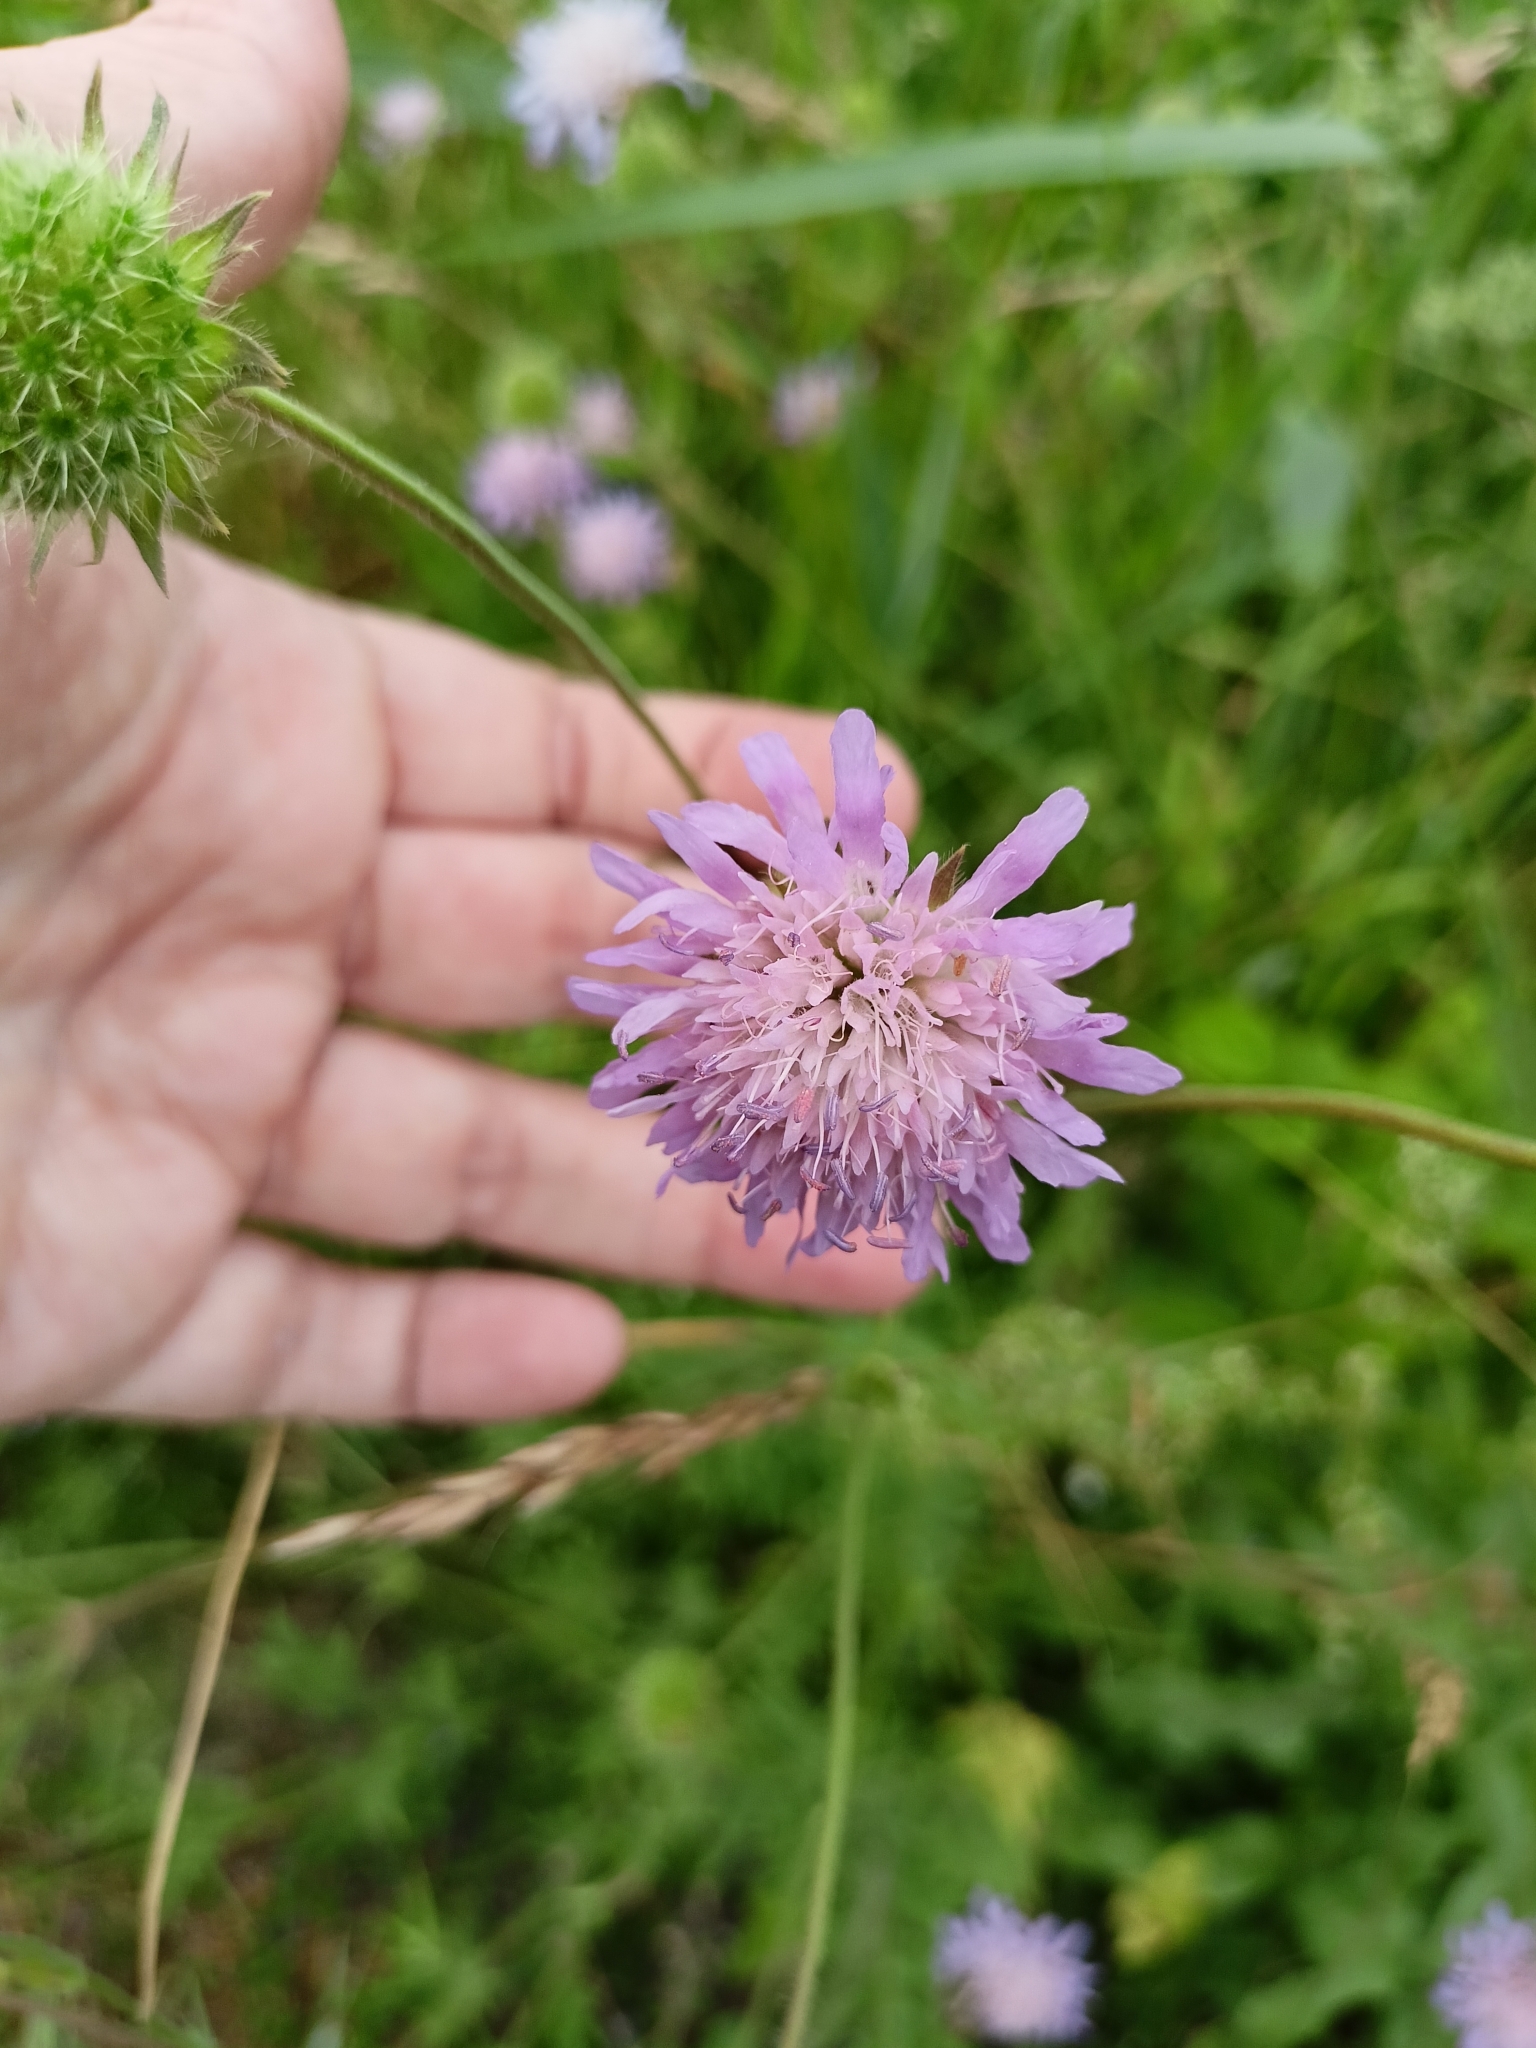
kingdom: Plantae
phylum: Tracheophyta
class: Magnoliopsida
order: Dipsacales
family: Caprifoliaceae
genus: Knautia
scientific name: Knautia arvensis
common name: Field scabiosa
